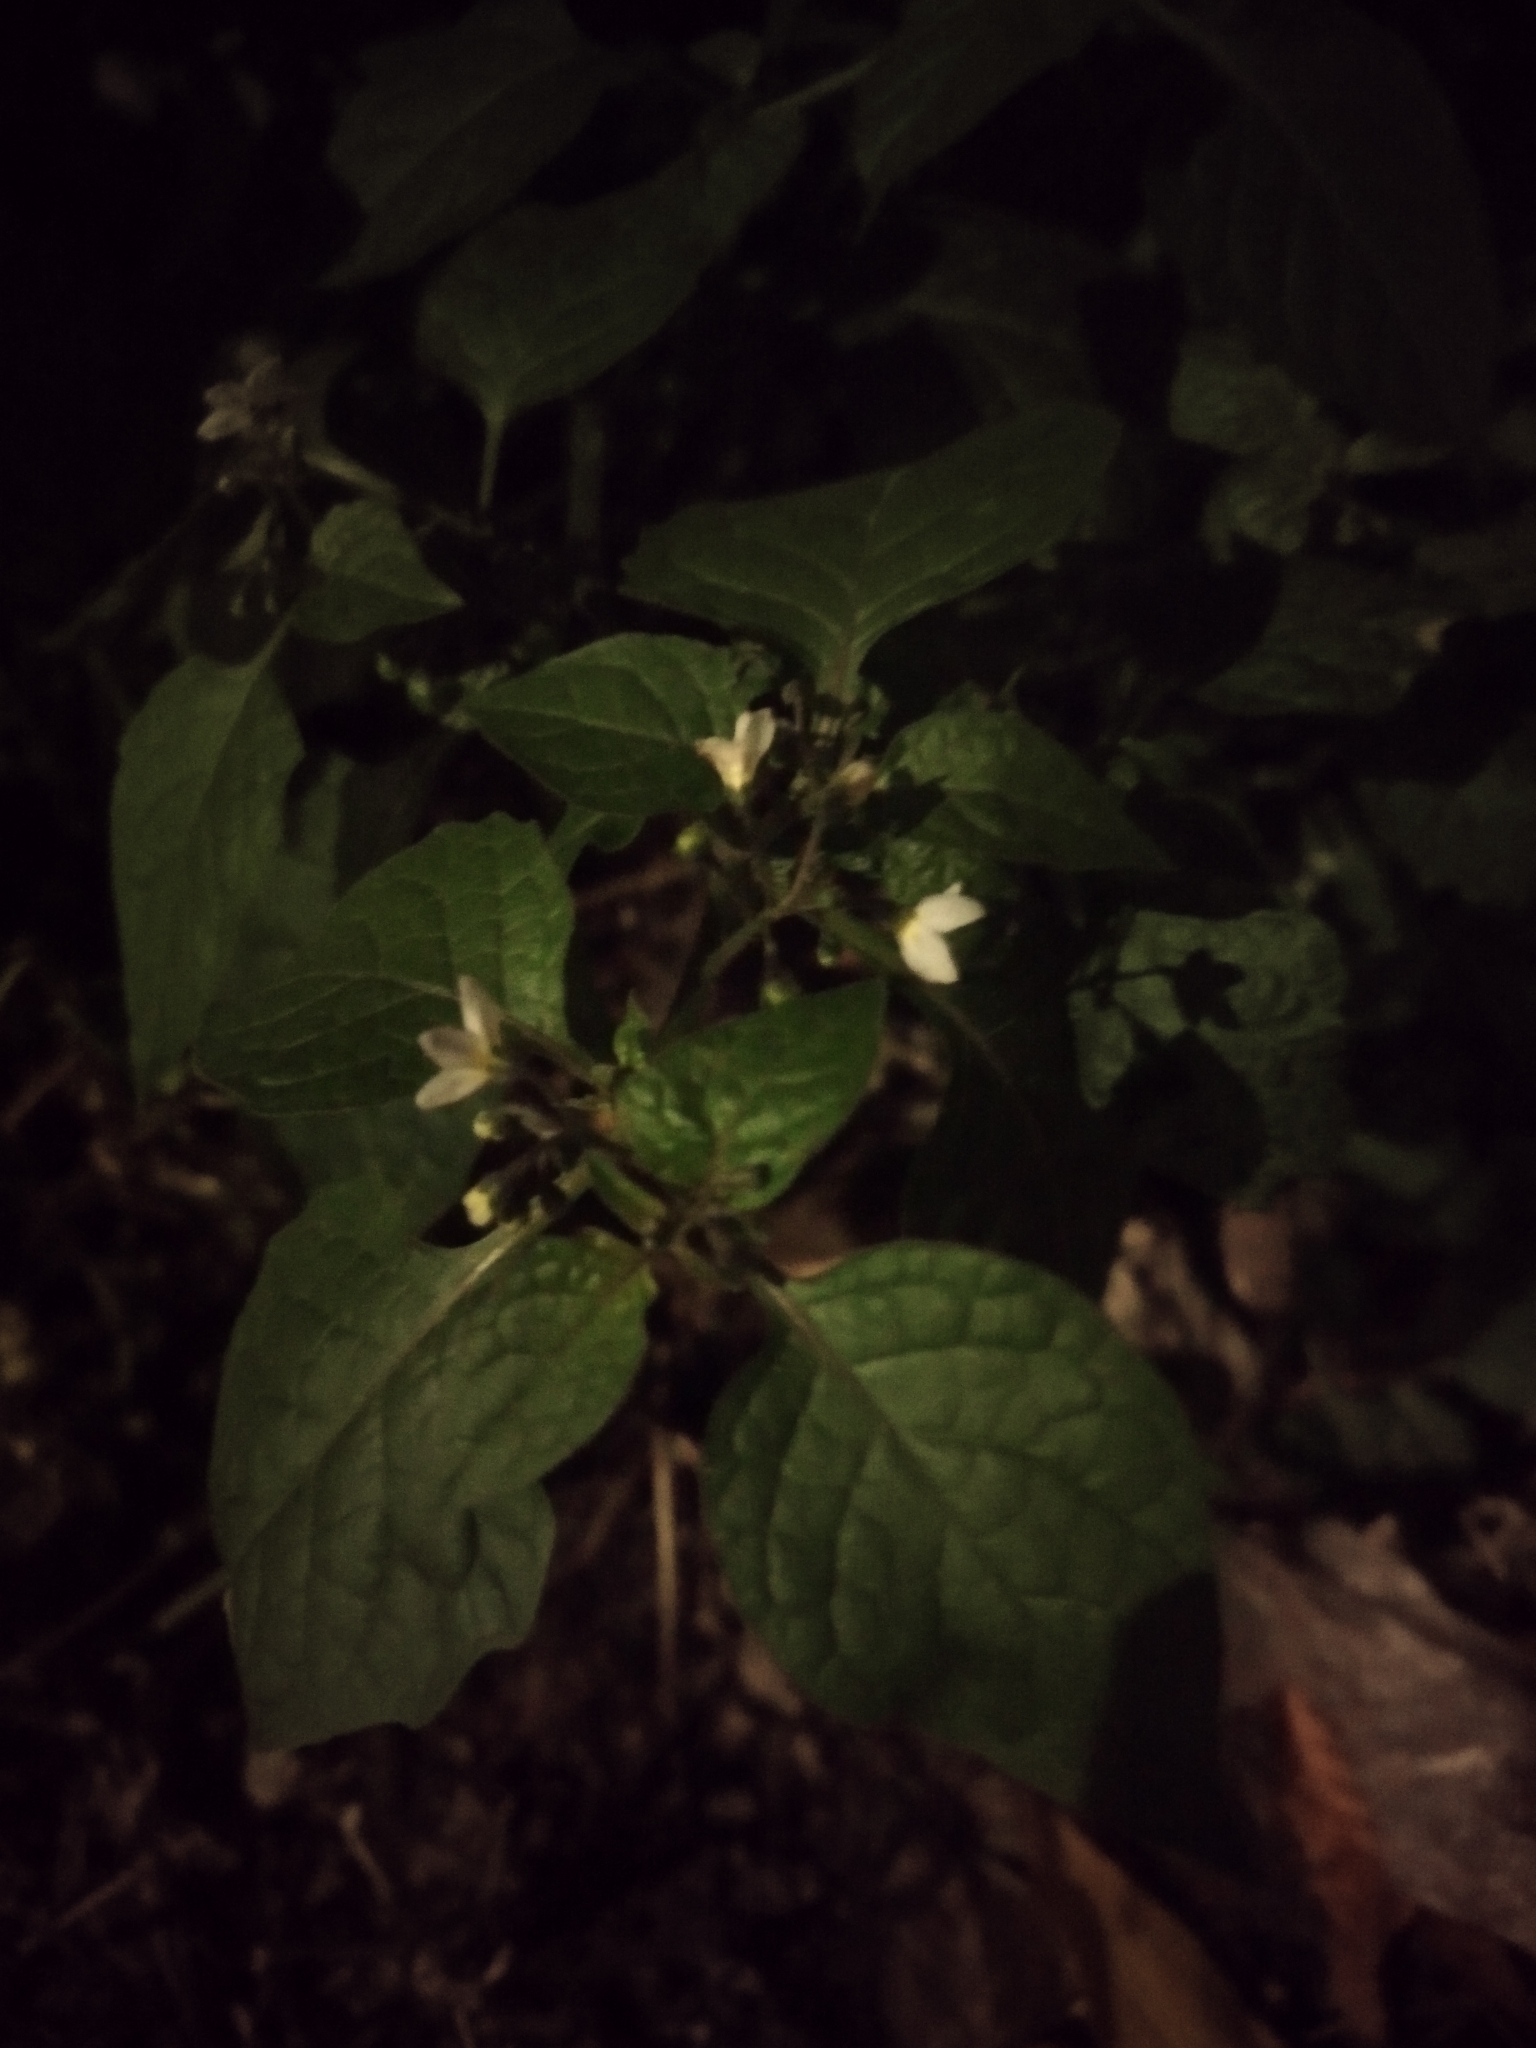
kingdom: Plantae
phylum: Tracheophyta
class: Magnoliopsida
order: Solanales
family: Solanaceae
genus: Solanum
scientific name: Solanum nigrum
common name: Black nightshade
